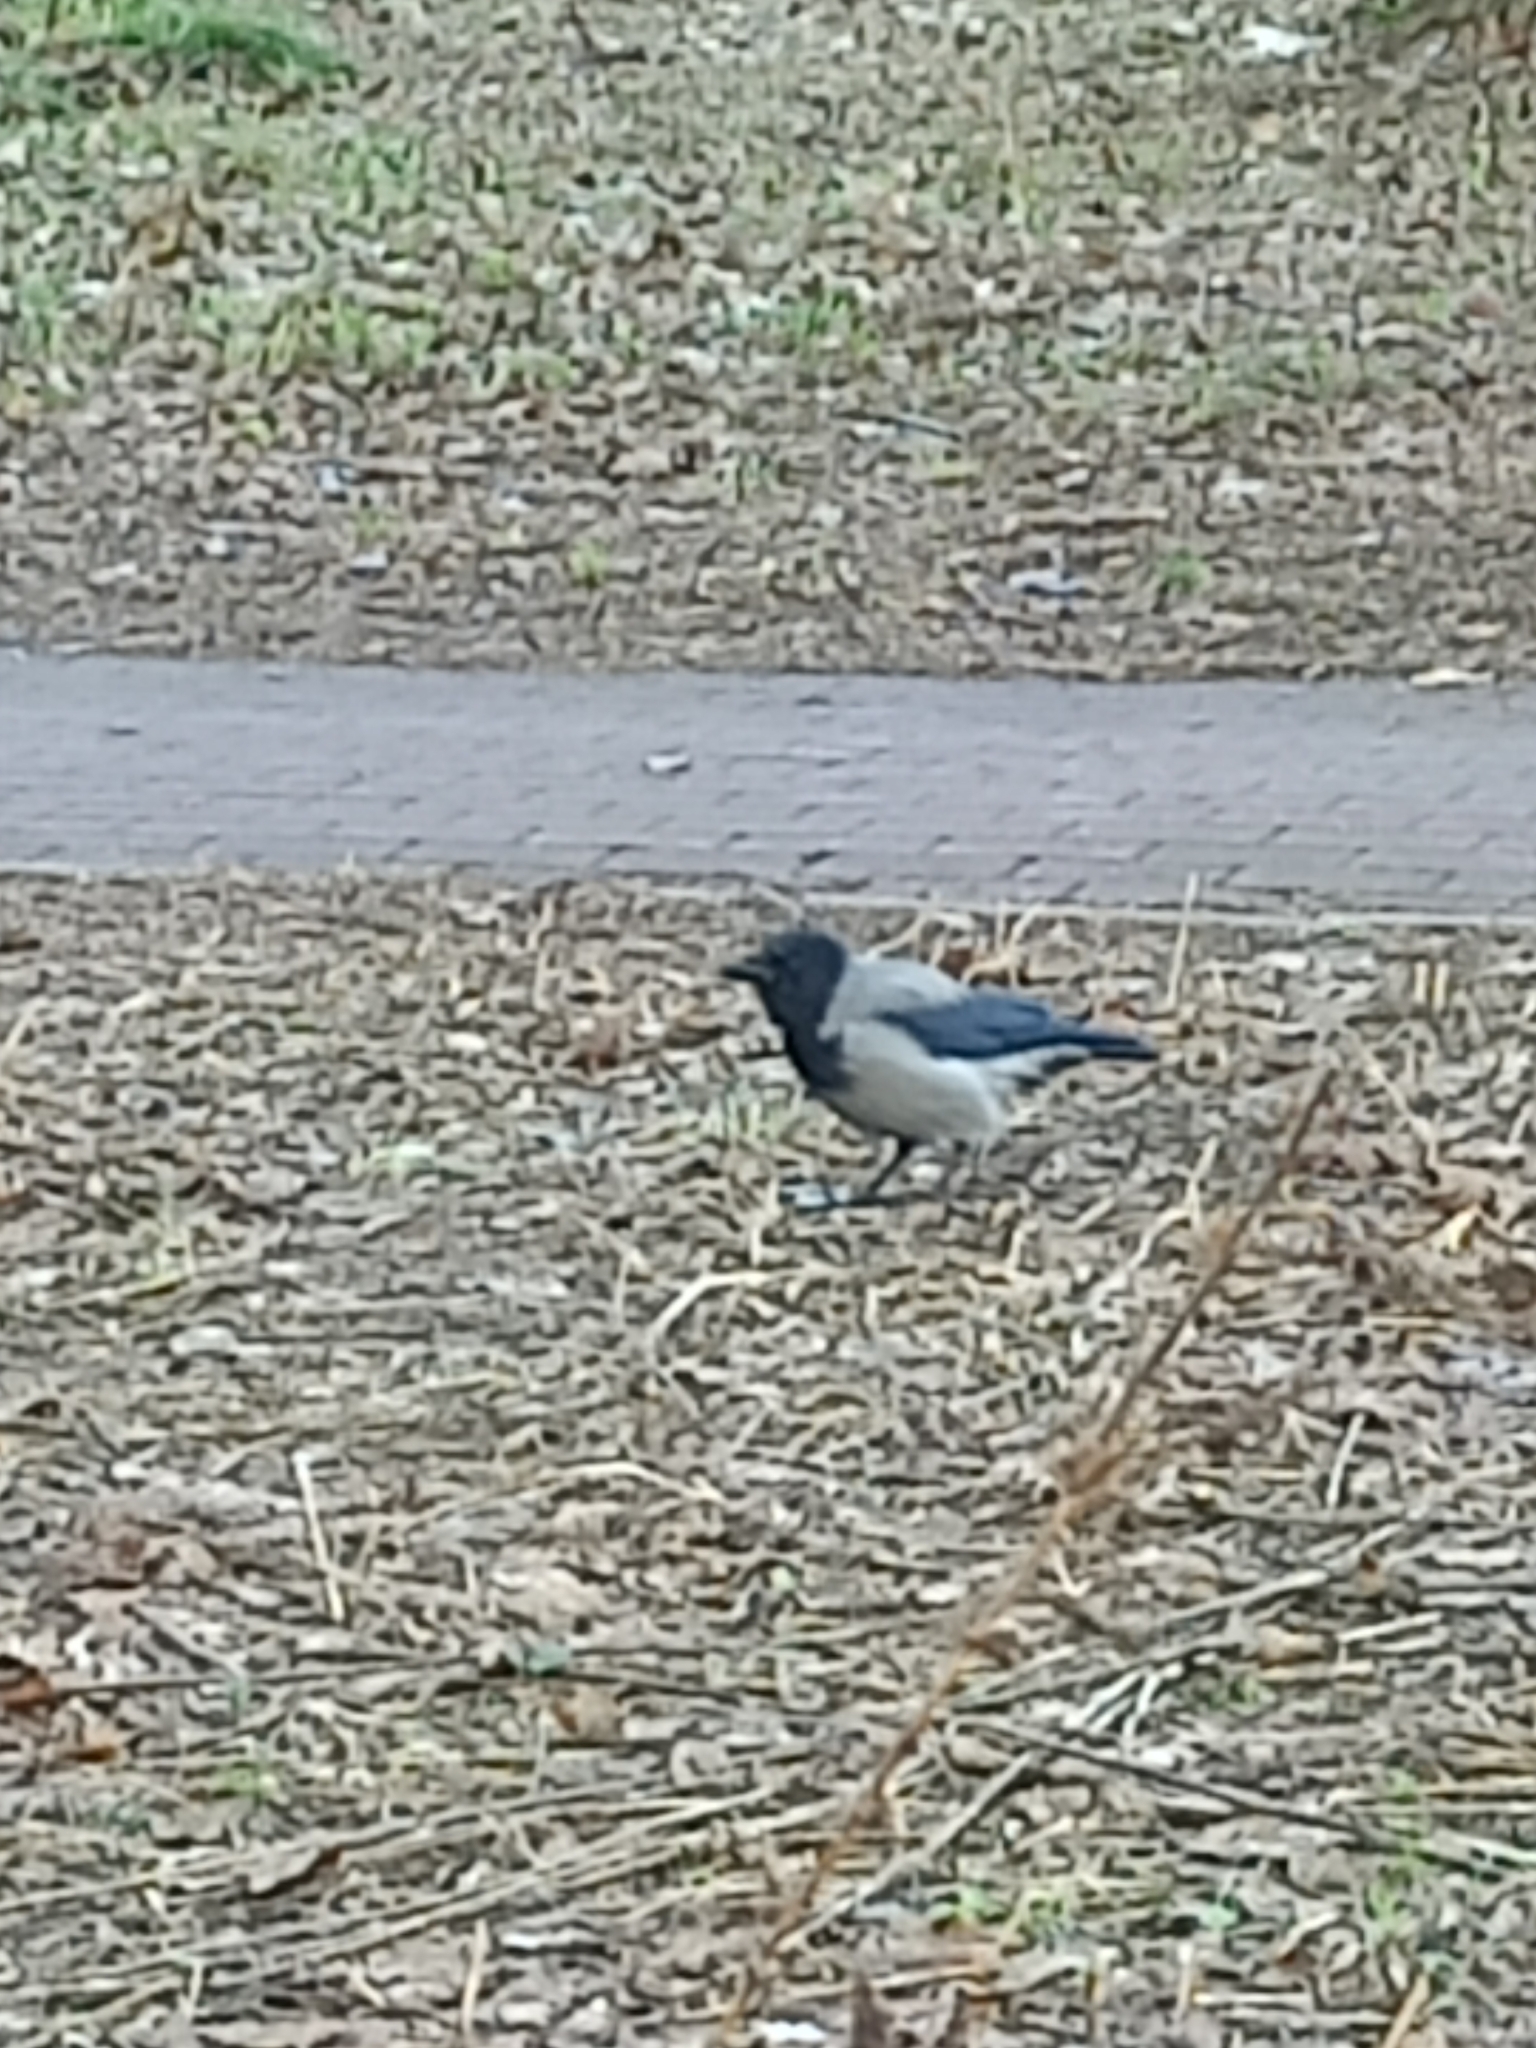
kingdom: Animalia
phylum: Chordata
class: Aves
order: Passeriformes
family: Corvidae
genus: Corvus
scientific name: Corvus cornix
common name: Hooded crow
